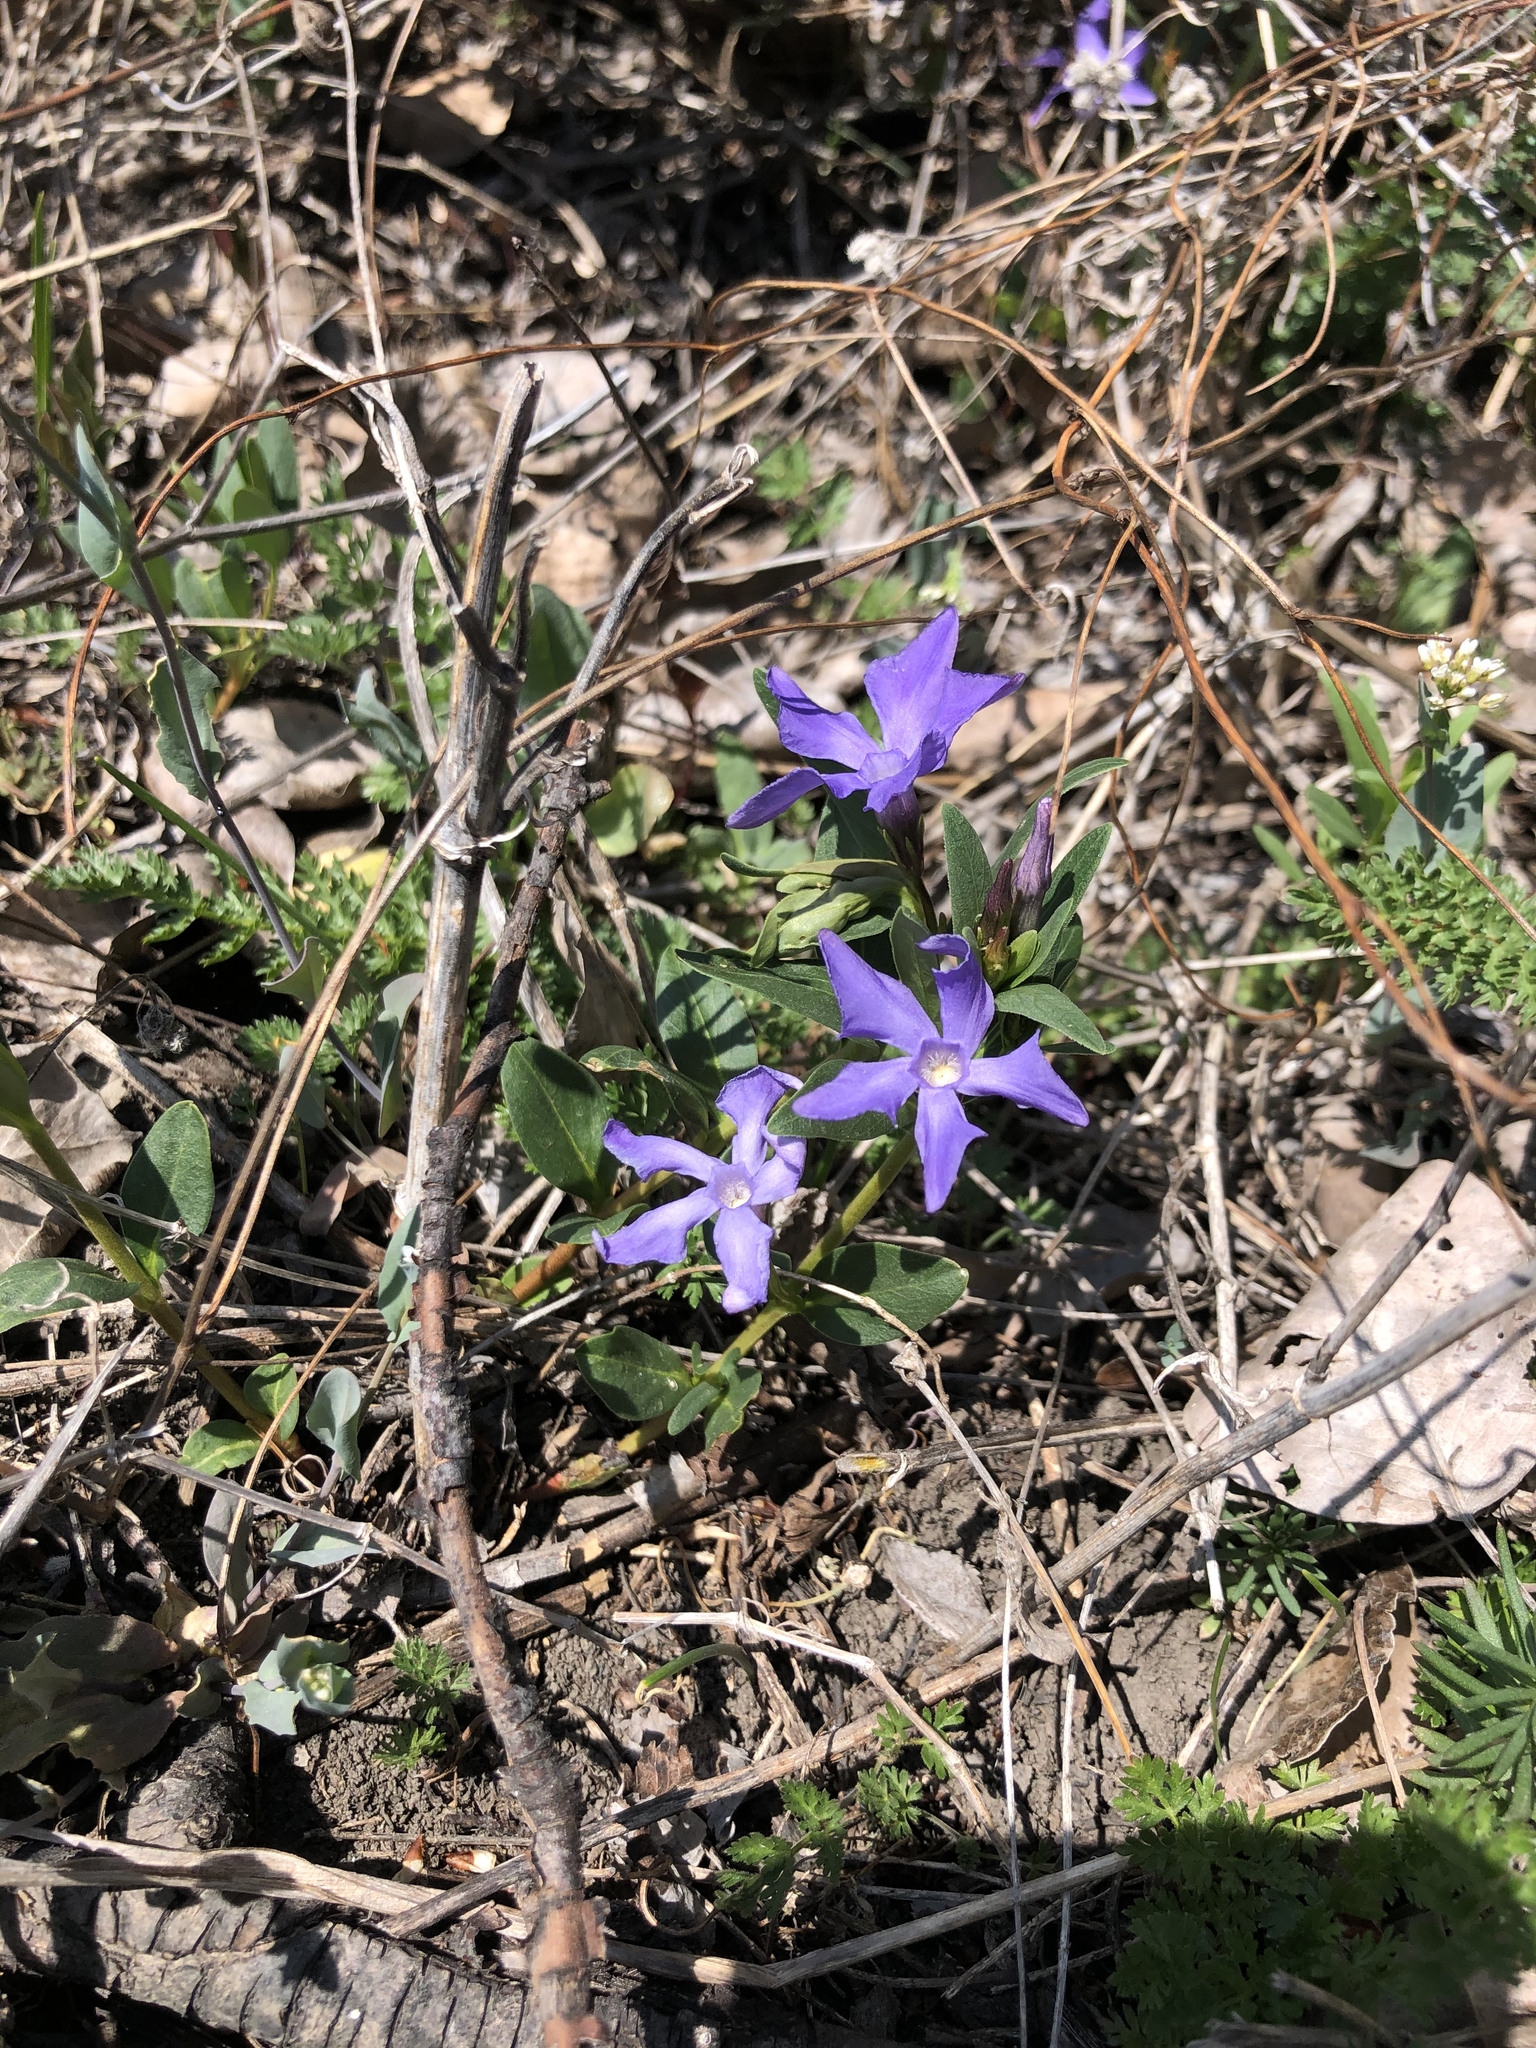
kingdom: Plantae
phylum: Tracheophyta
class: Magnoliopsida
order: Gentianales
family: Apocynaceae
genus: Vinca
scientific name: Vinca herbacea
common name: Herbaceous periwinkle
